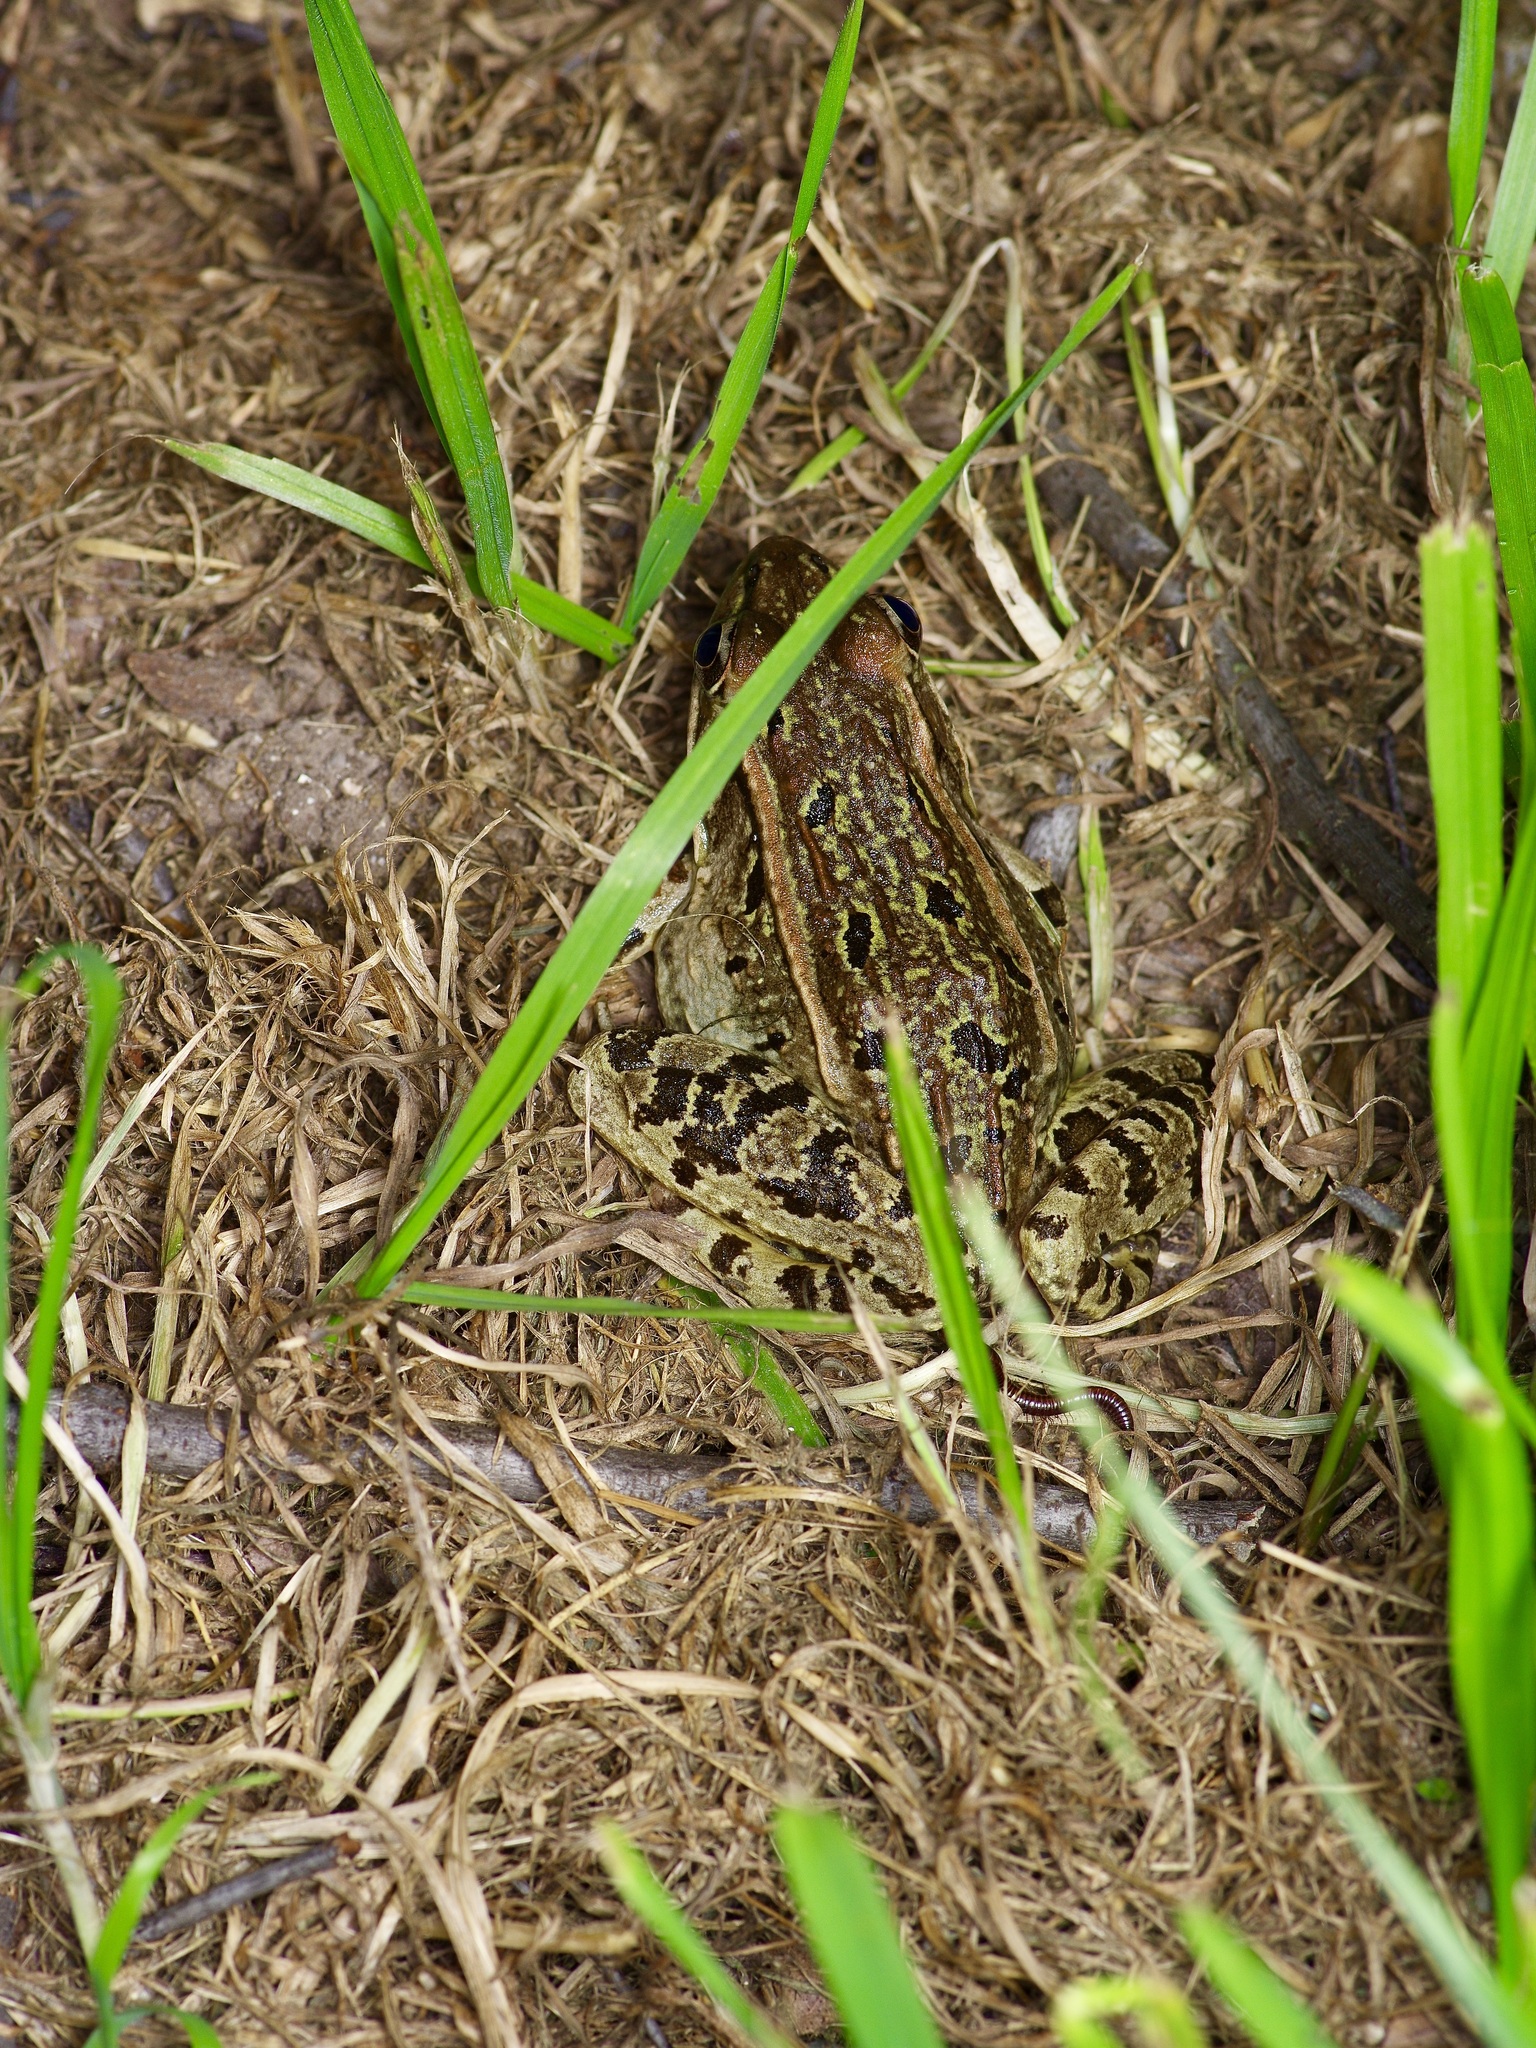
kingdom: Animalia
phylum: Chordata
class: Amphibia
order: Anura
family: Ranidae
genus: Lithobates
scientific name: Lithobates berlandieri
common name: Rio grande leopard frog
